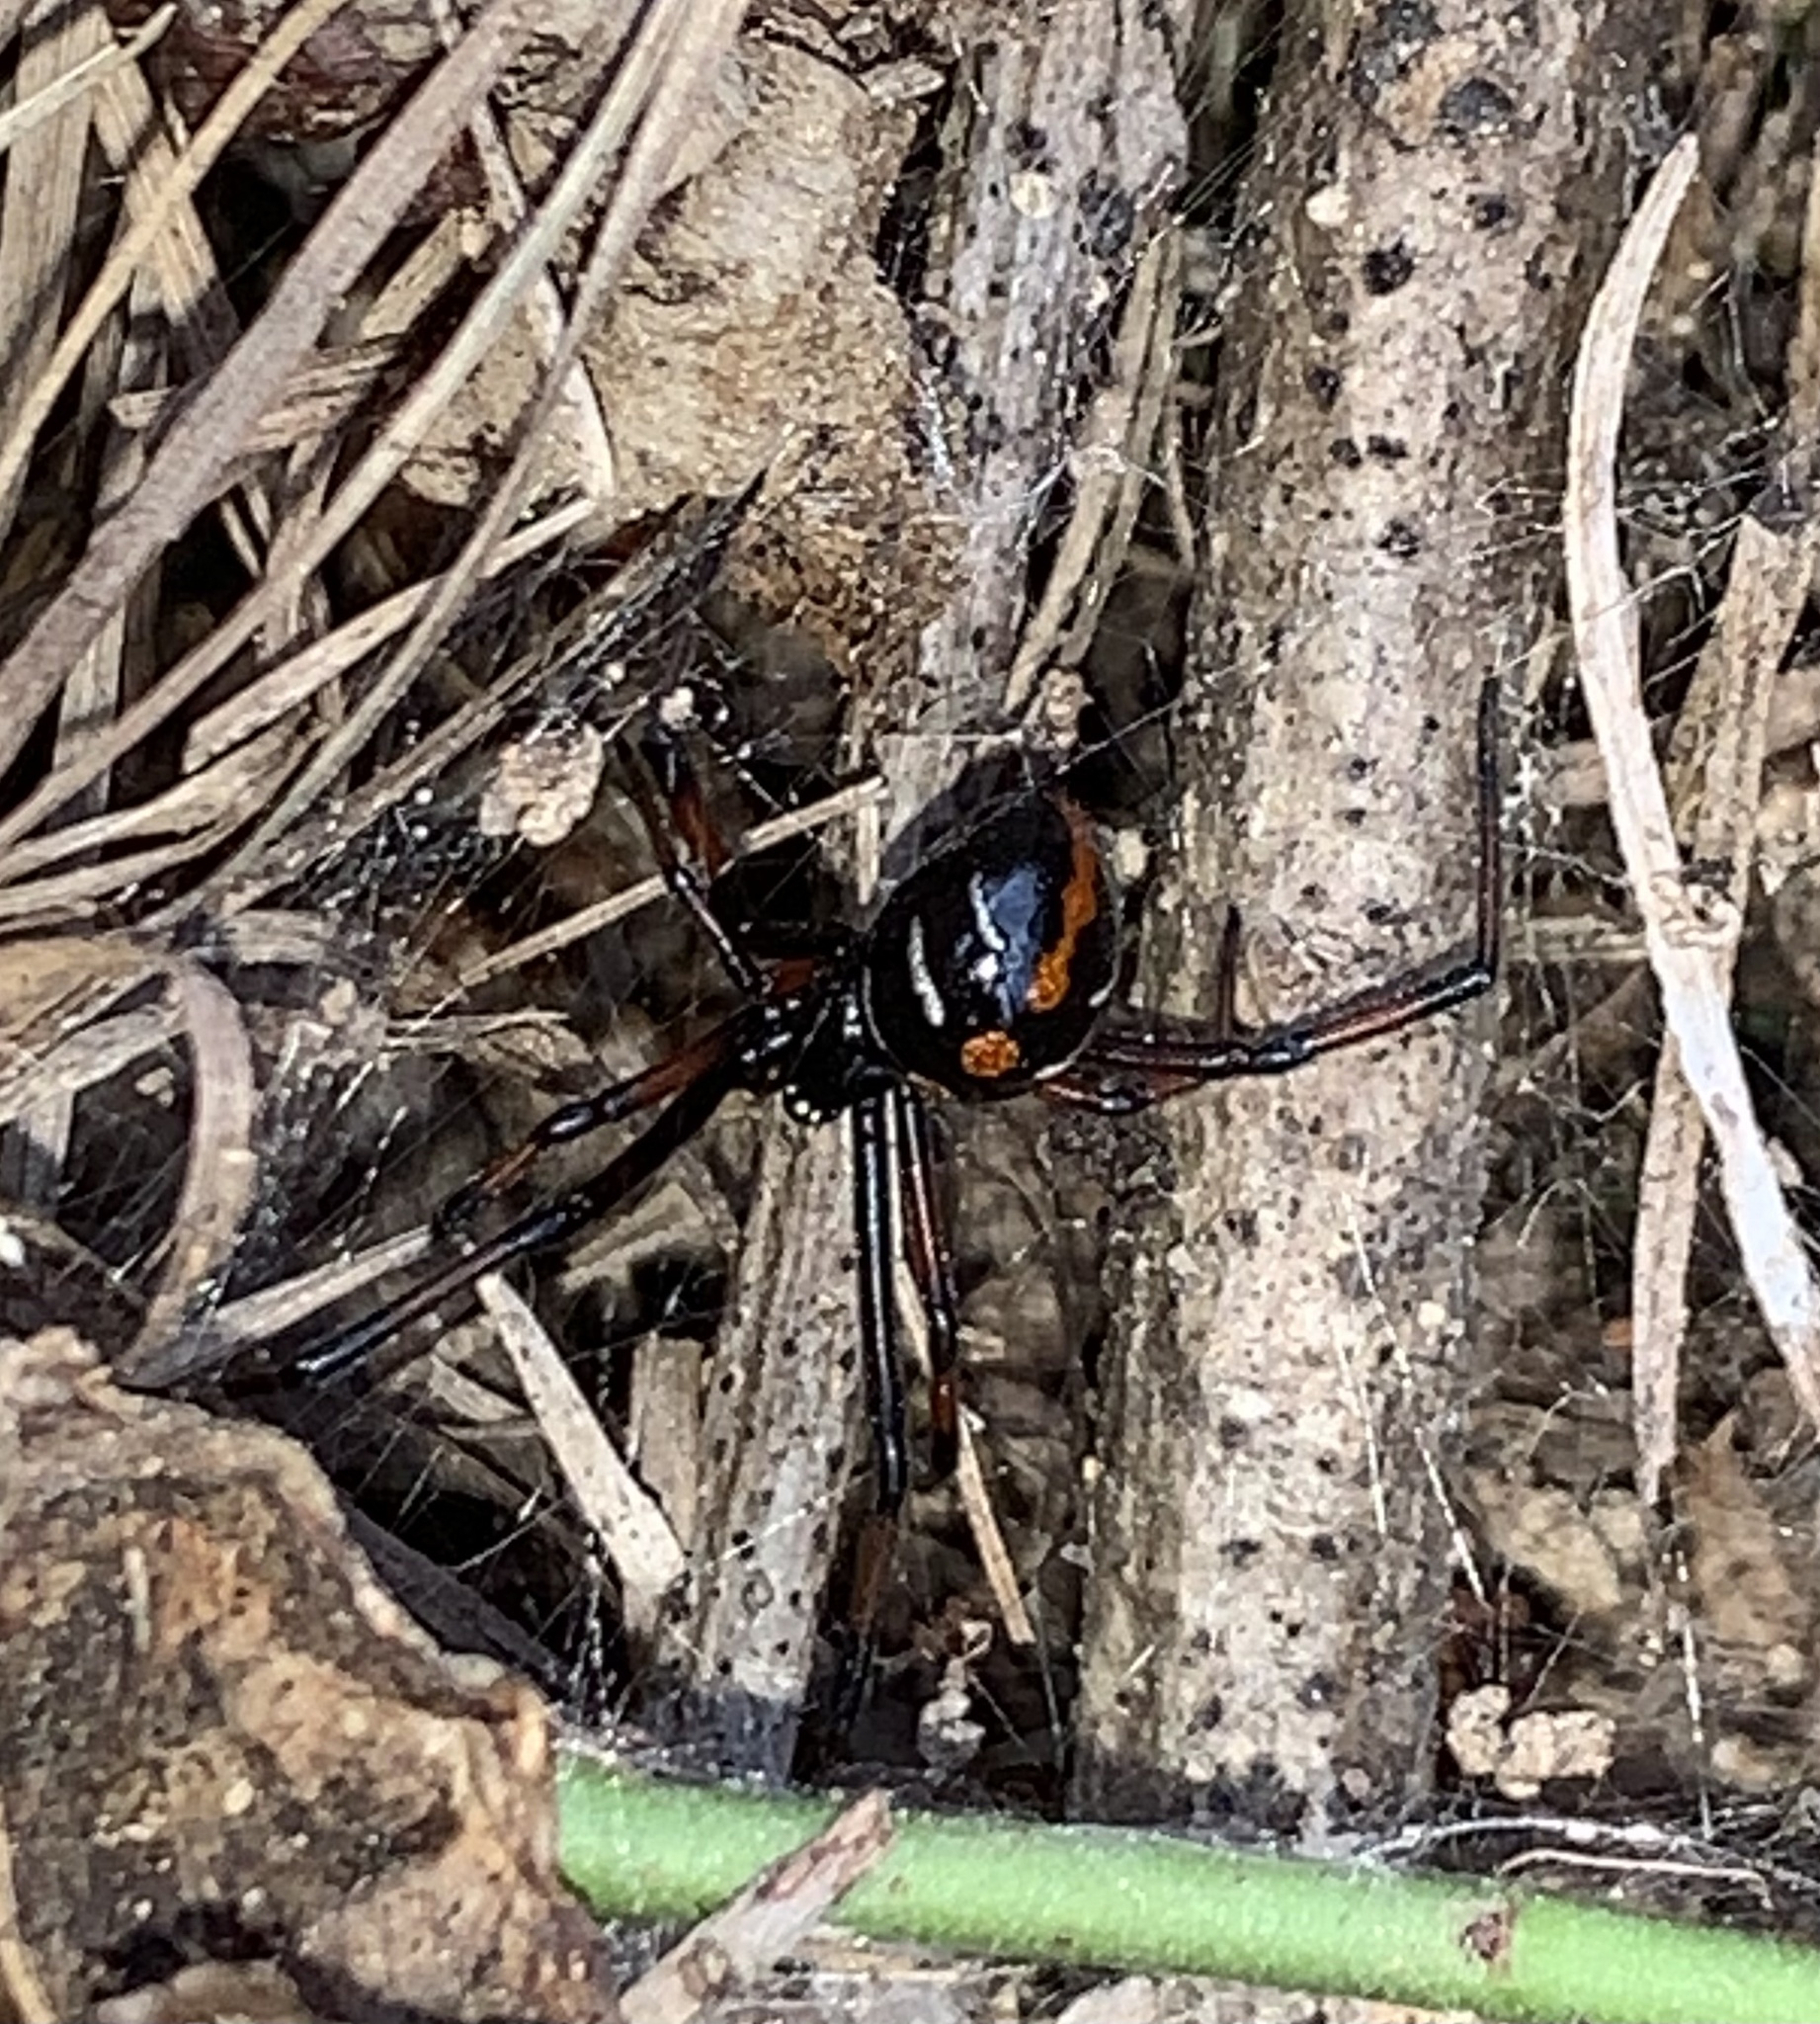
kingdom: Animalia
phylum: Arthropoda
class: Arachnida
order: Araneae
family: Theridiidae
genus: Latrodectus
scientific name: Latrodectus variolus
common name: Northern black widow
